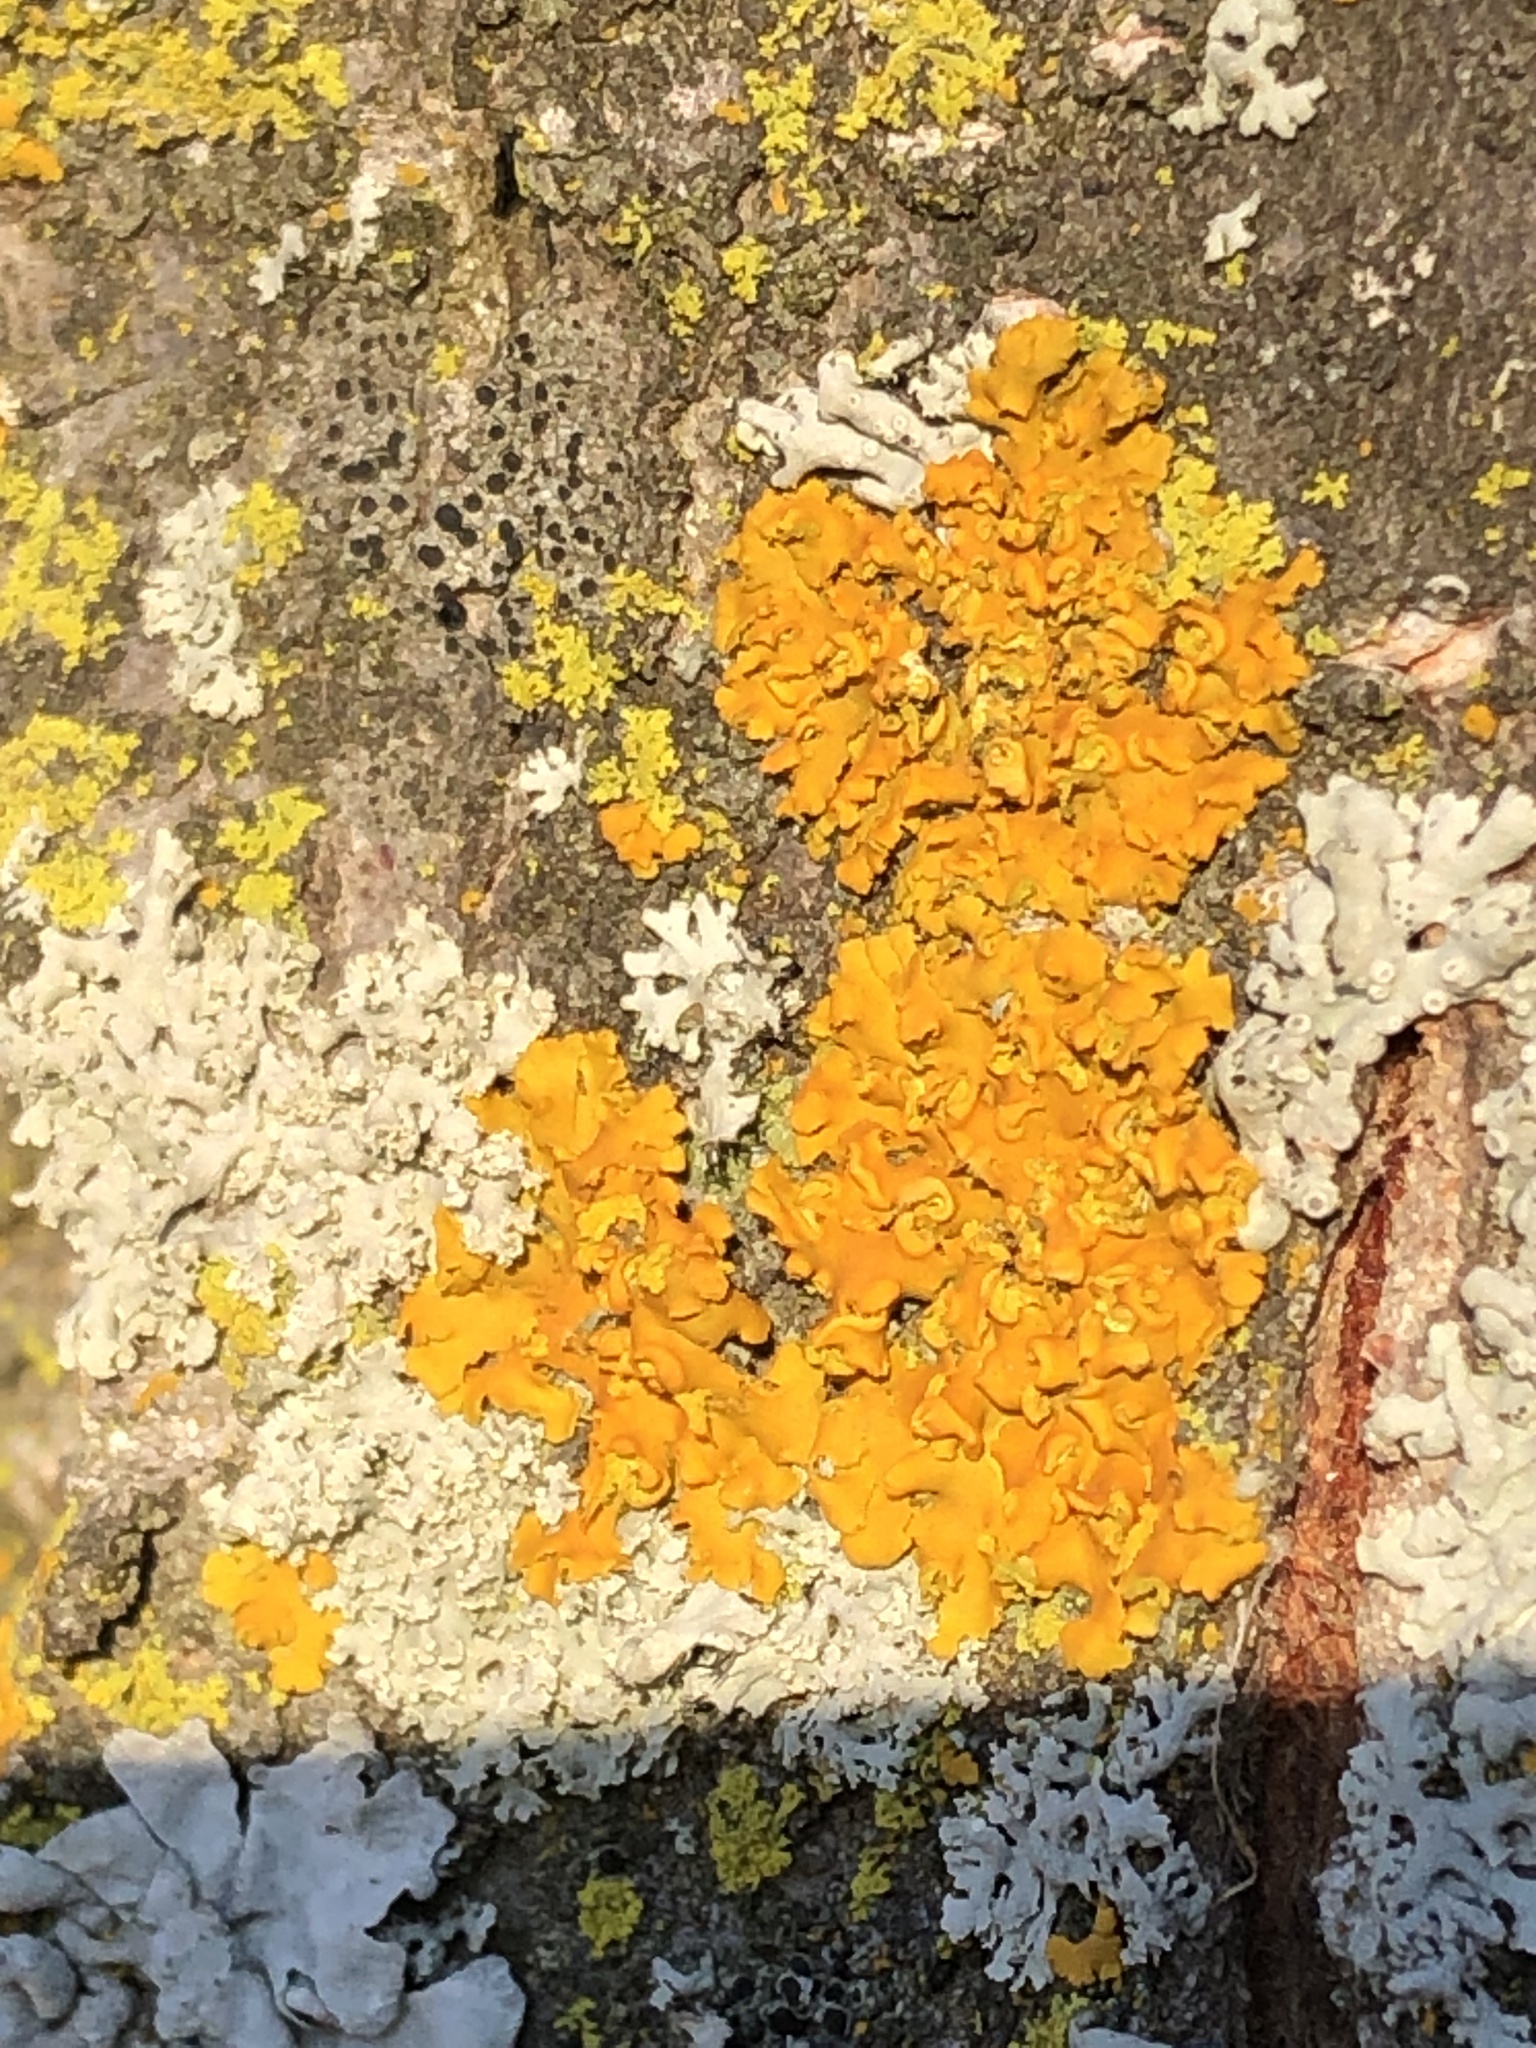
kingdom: Fungi
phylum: Ascomycota
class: Lecanoromycetes
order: Teloschistales
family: Teloschistaceae
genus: Oxneria
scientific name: Oxneria fallax
